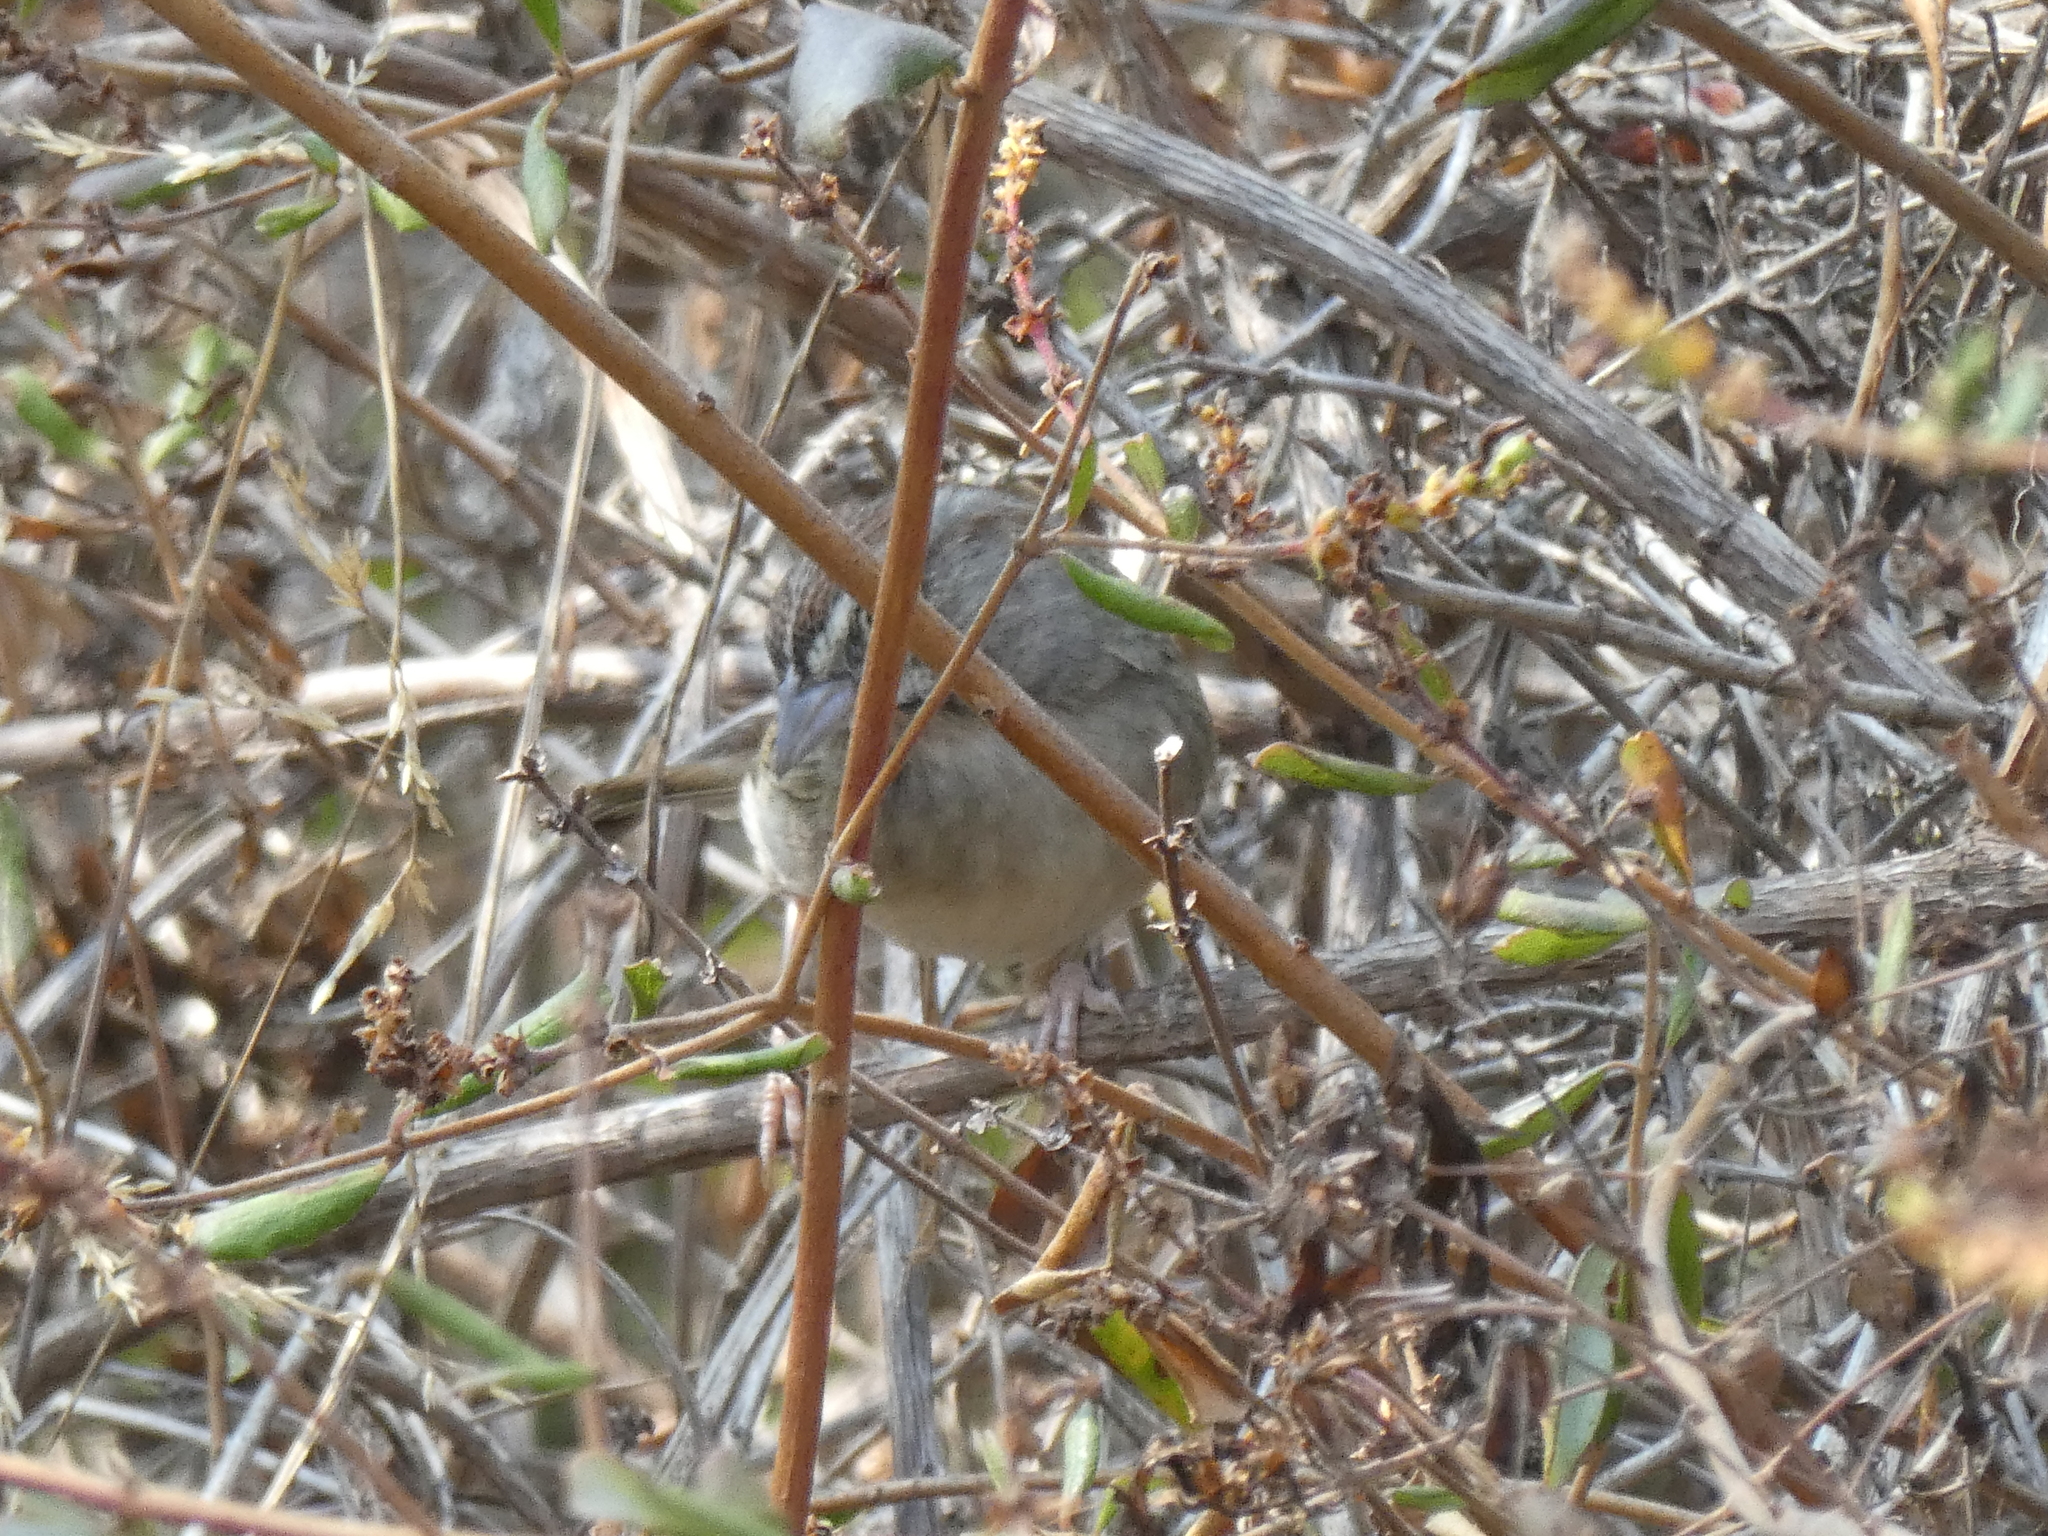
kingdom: Animalia
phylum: Chordata
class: Aves
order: Passeriformes
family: Passerellidae
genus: Aimophila
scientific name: Aimophila ruficeps
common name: Rufous-crowned sparrow
